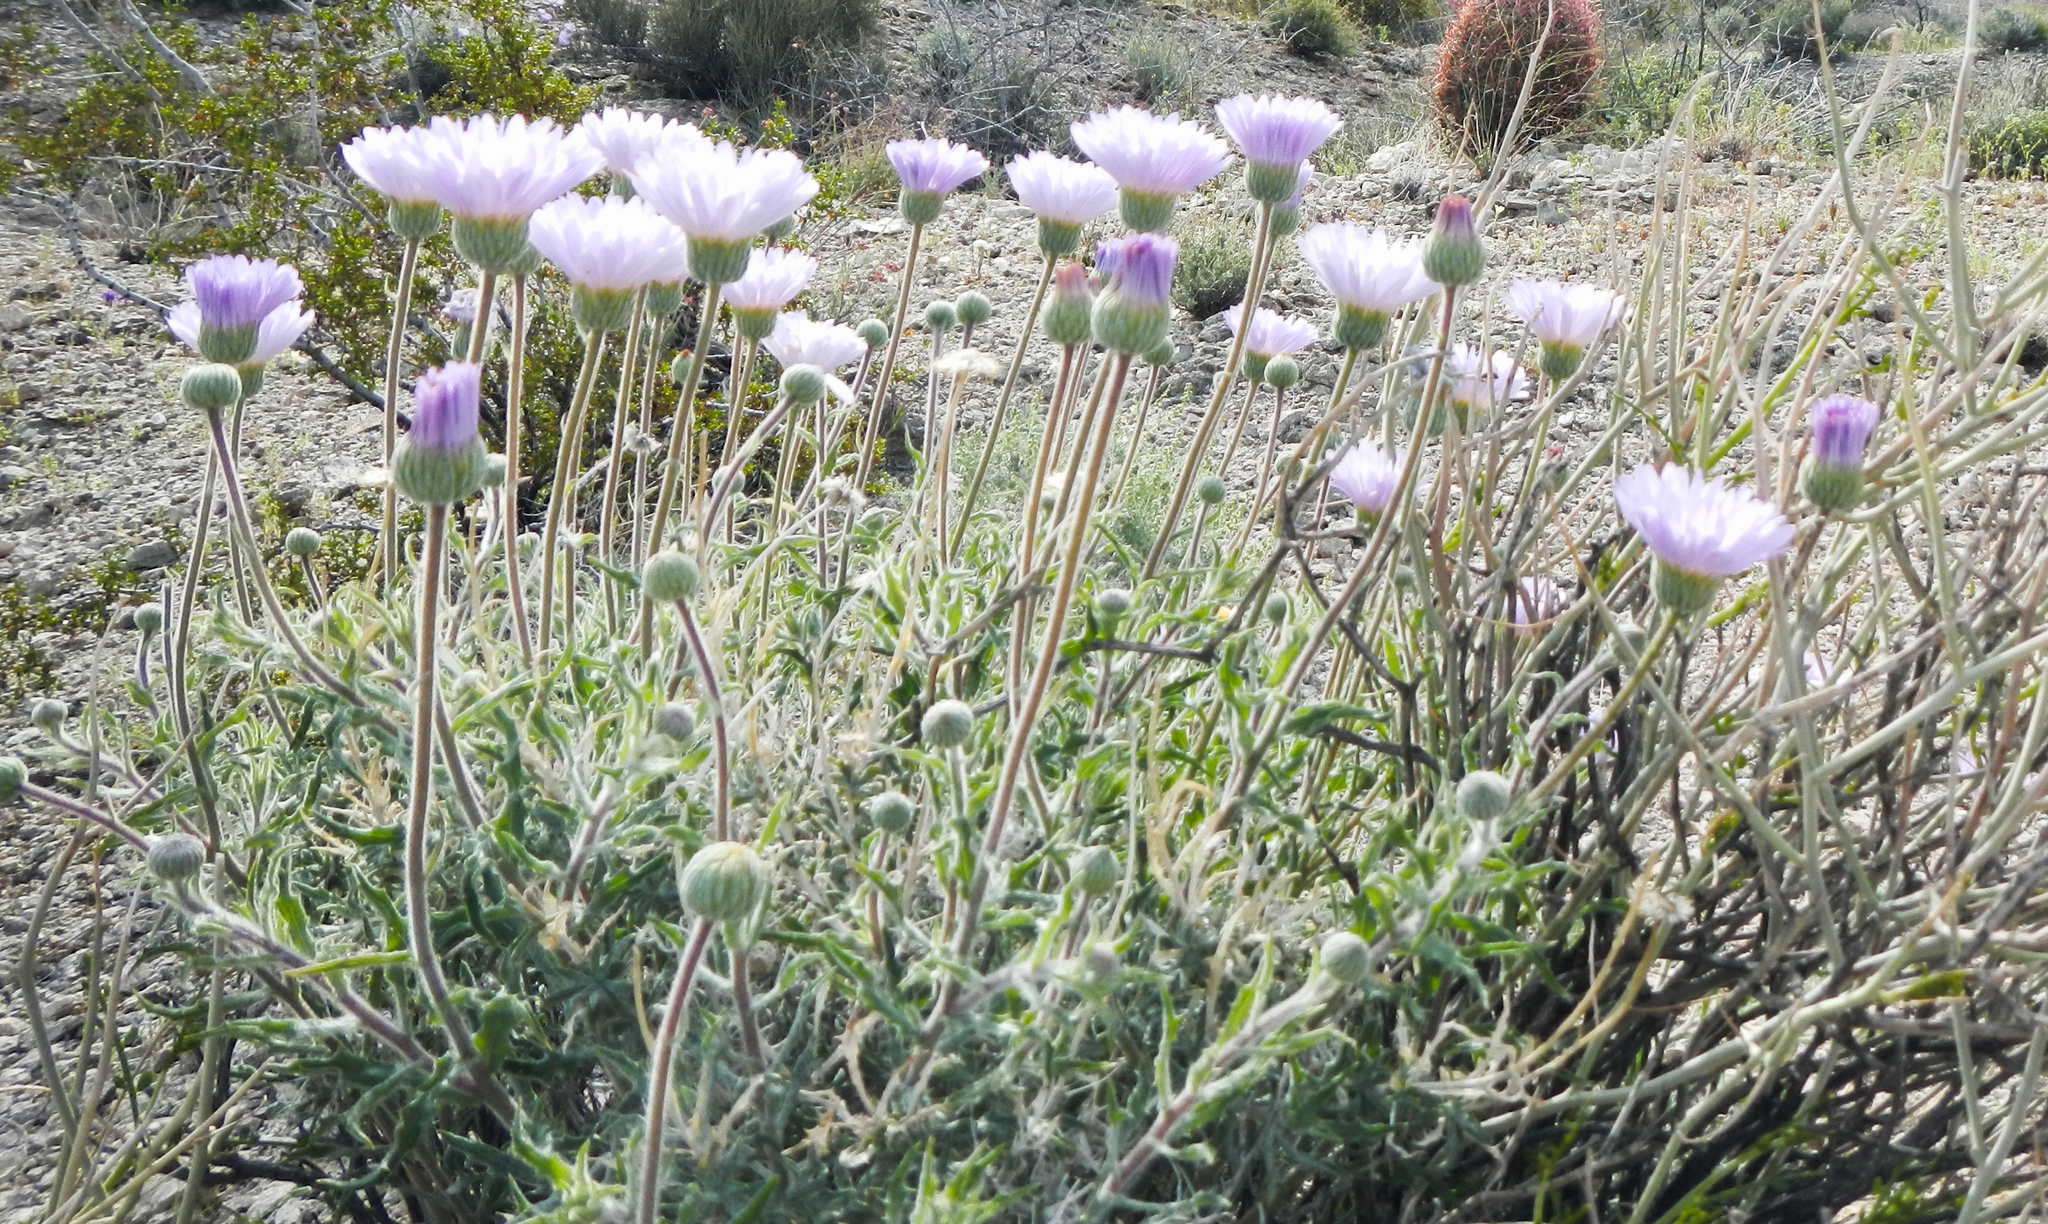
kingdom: Plantae
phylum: Tracheophyta
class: Magnoliopsida
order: Asterales
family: Asteraceae
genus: Xylorhiza
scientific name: Xylorhiza tortifolia
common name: Hurt-leaf woody-aster
